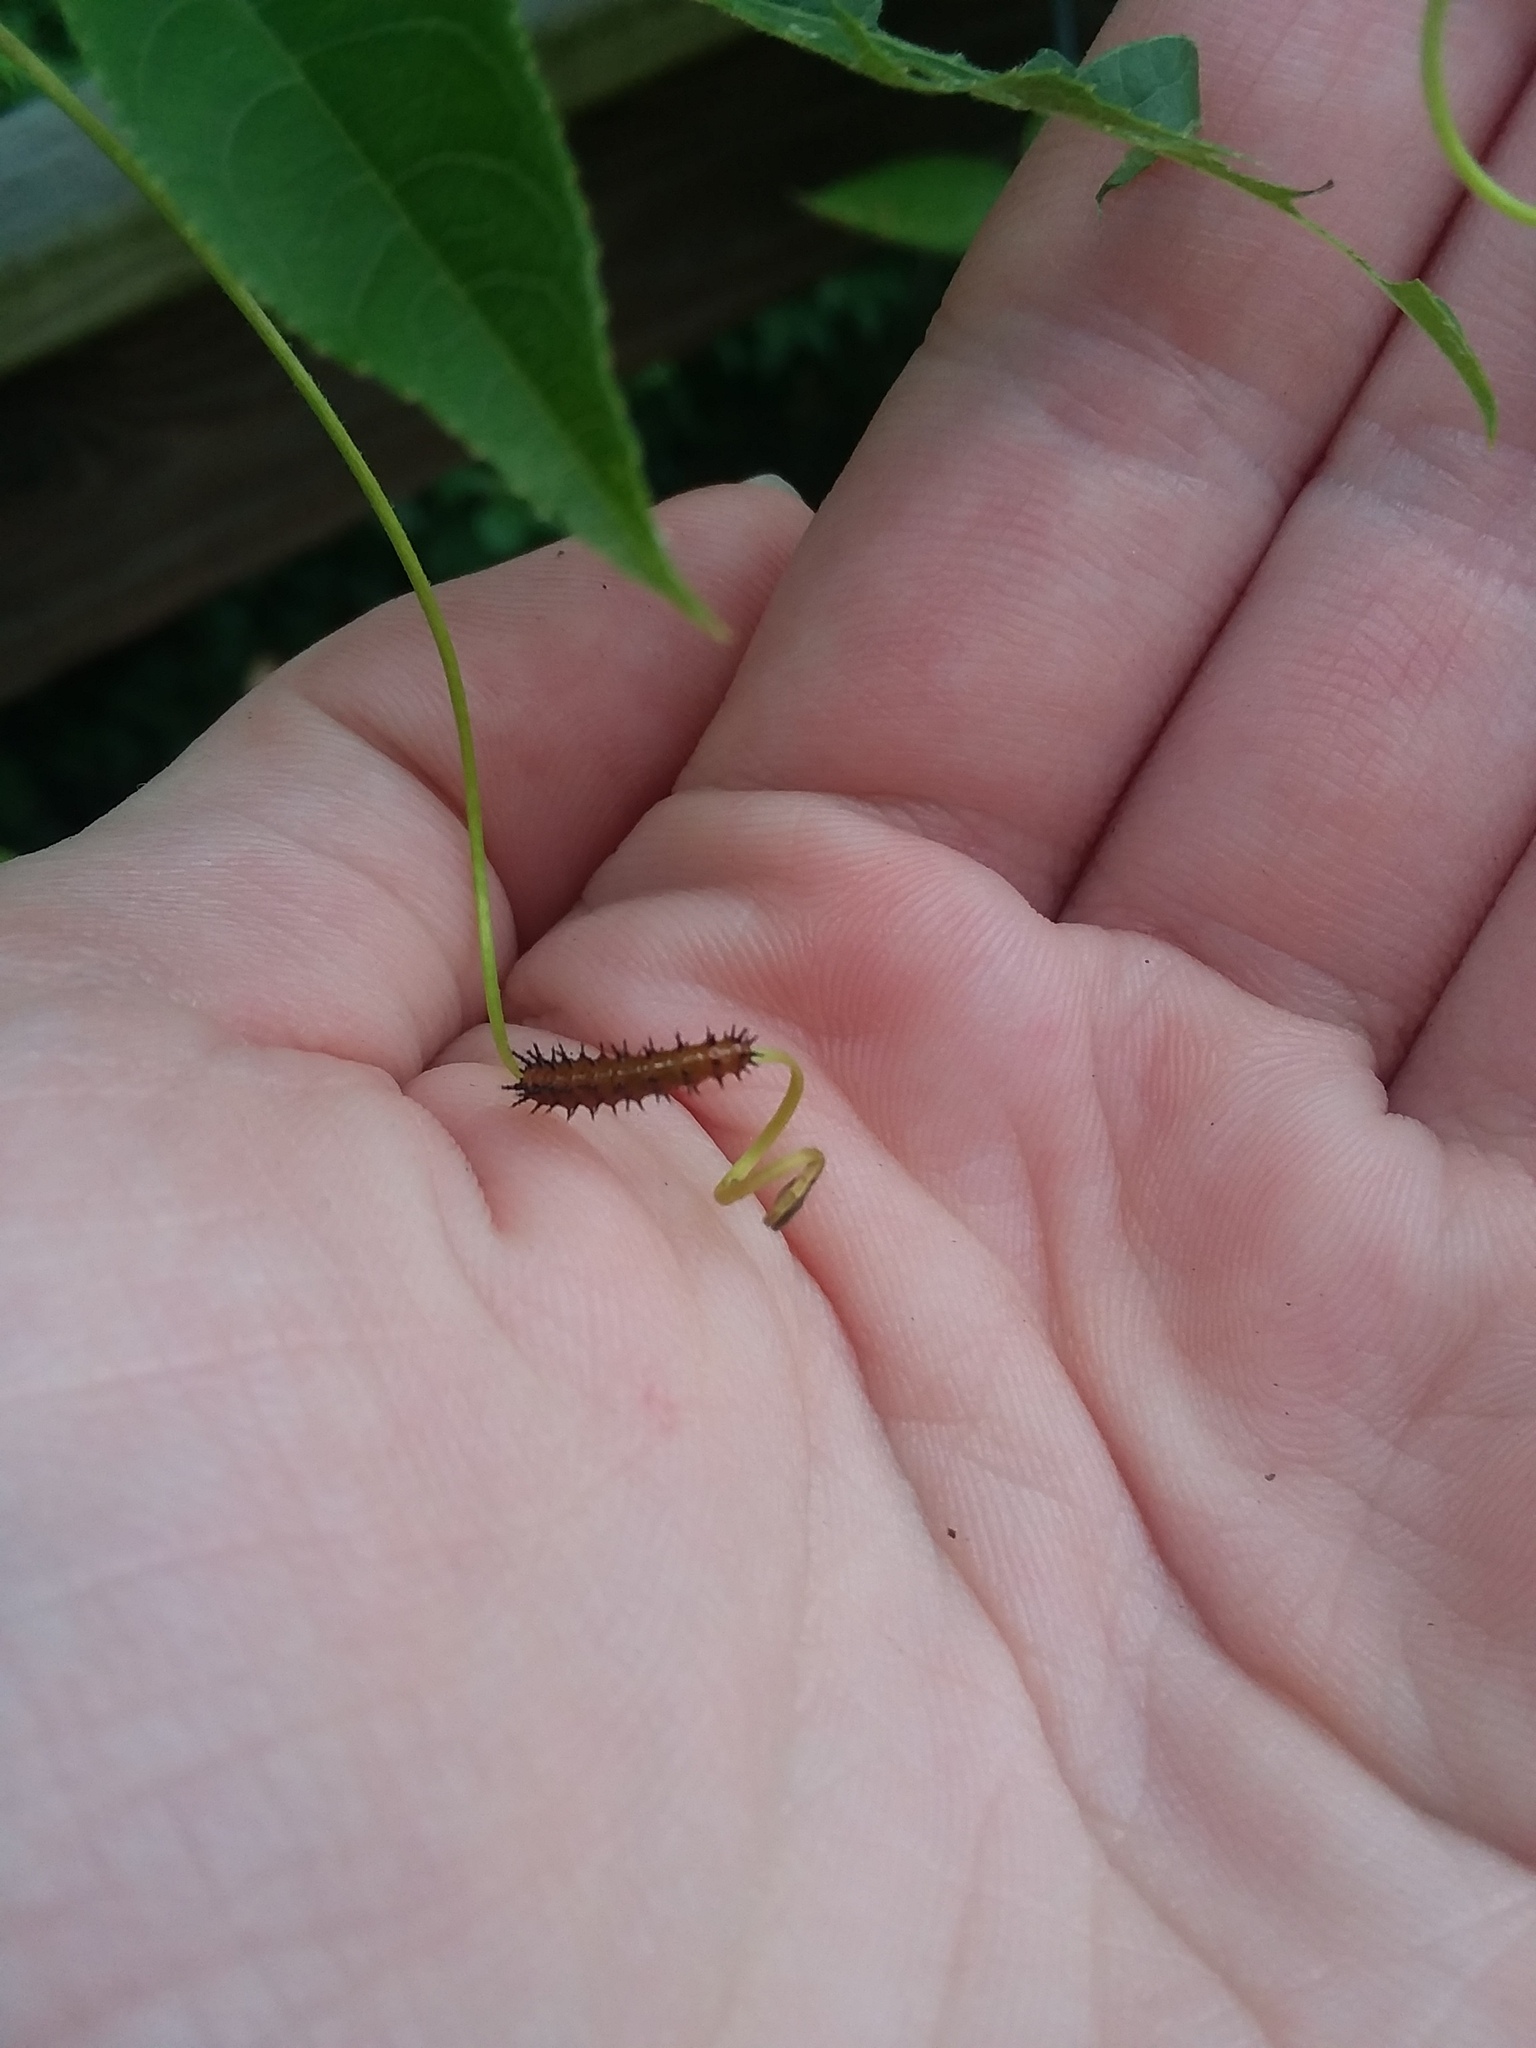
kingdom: Animalia
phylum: Arthropoda
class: Insecta
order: Lepidoptera
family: Nymphalidae
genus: Dione
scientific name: Dione vanillae
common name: Gulf fritillary
